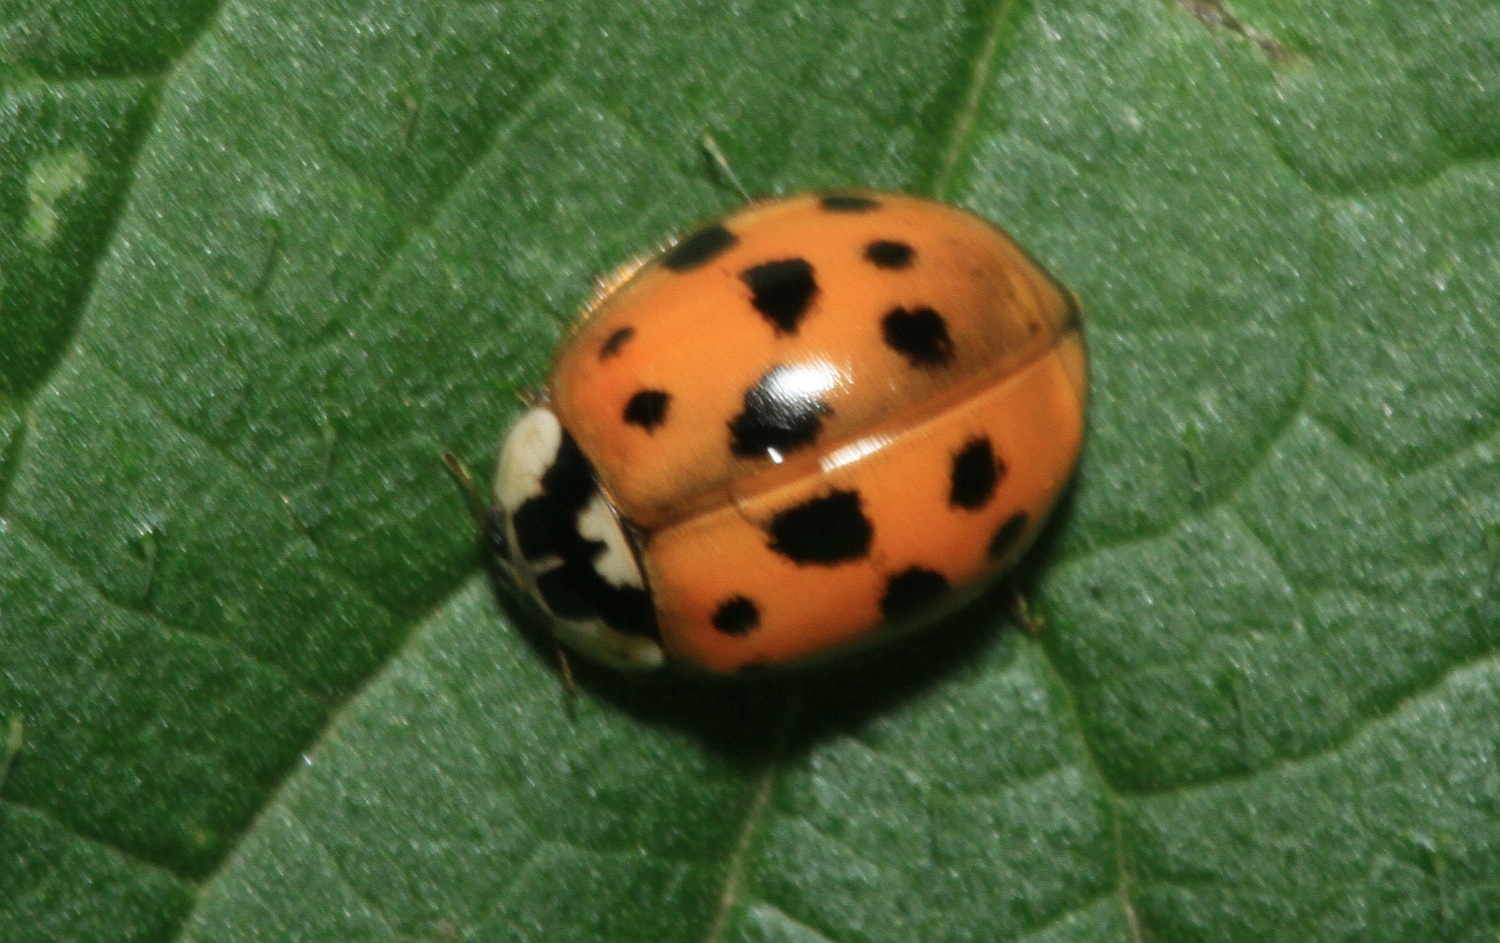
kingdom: Animalia
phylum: Arthropoda
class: Insecta
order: Coleoptera
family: Coccinellidae
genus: Harmonia
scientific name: Harmonia axyridis
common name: Harlequin ladybird
